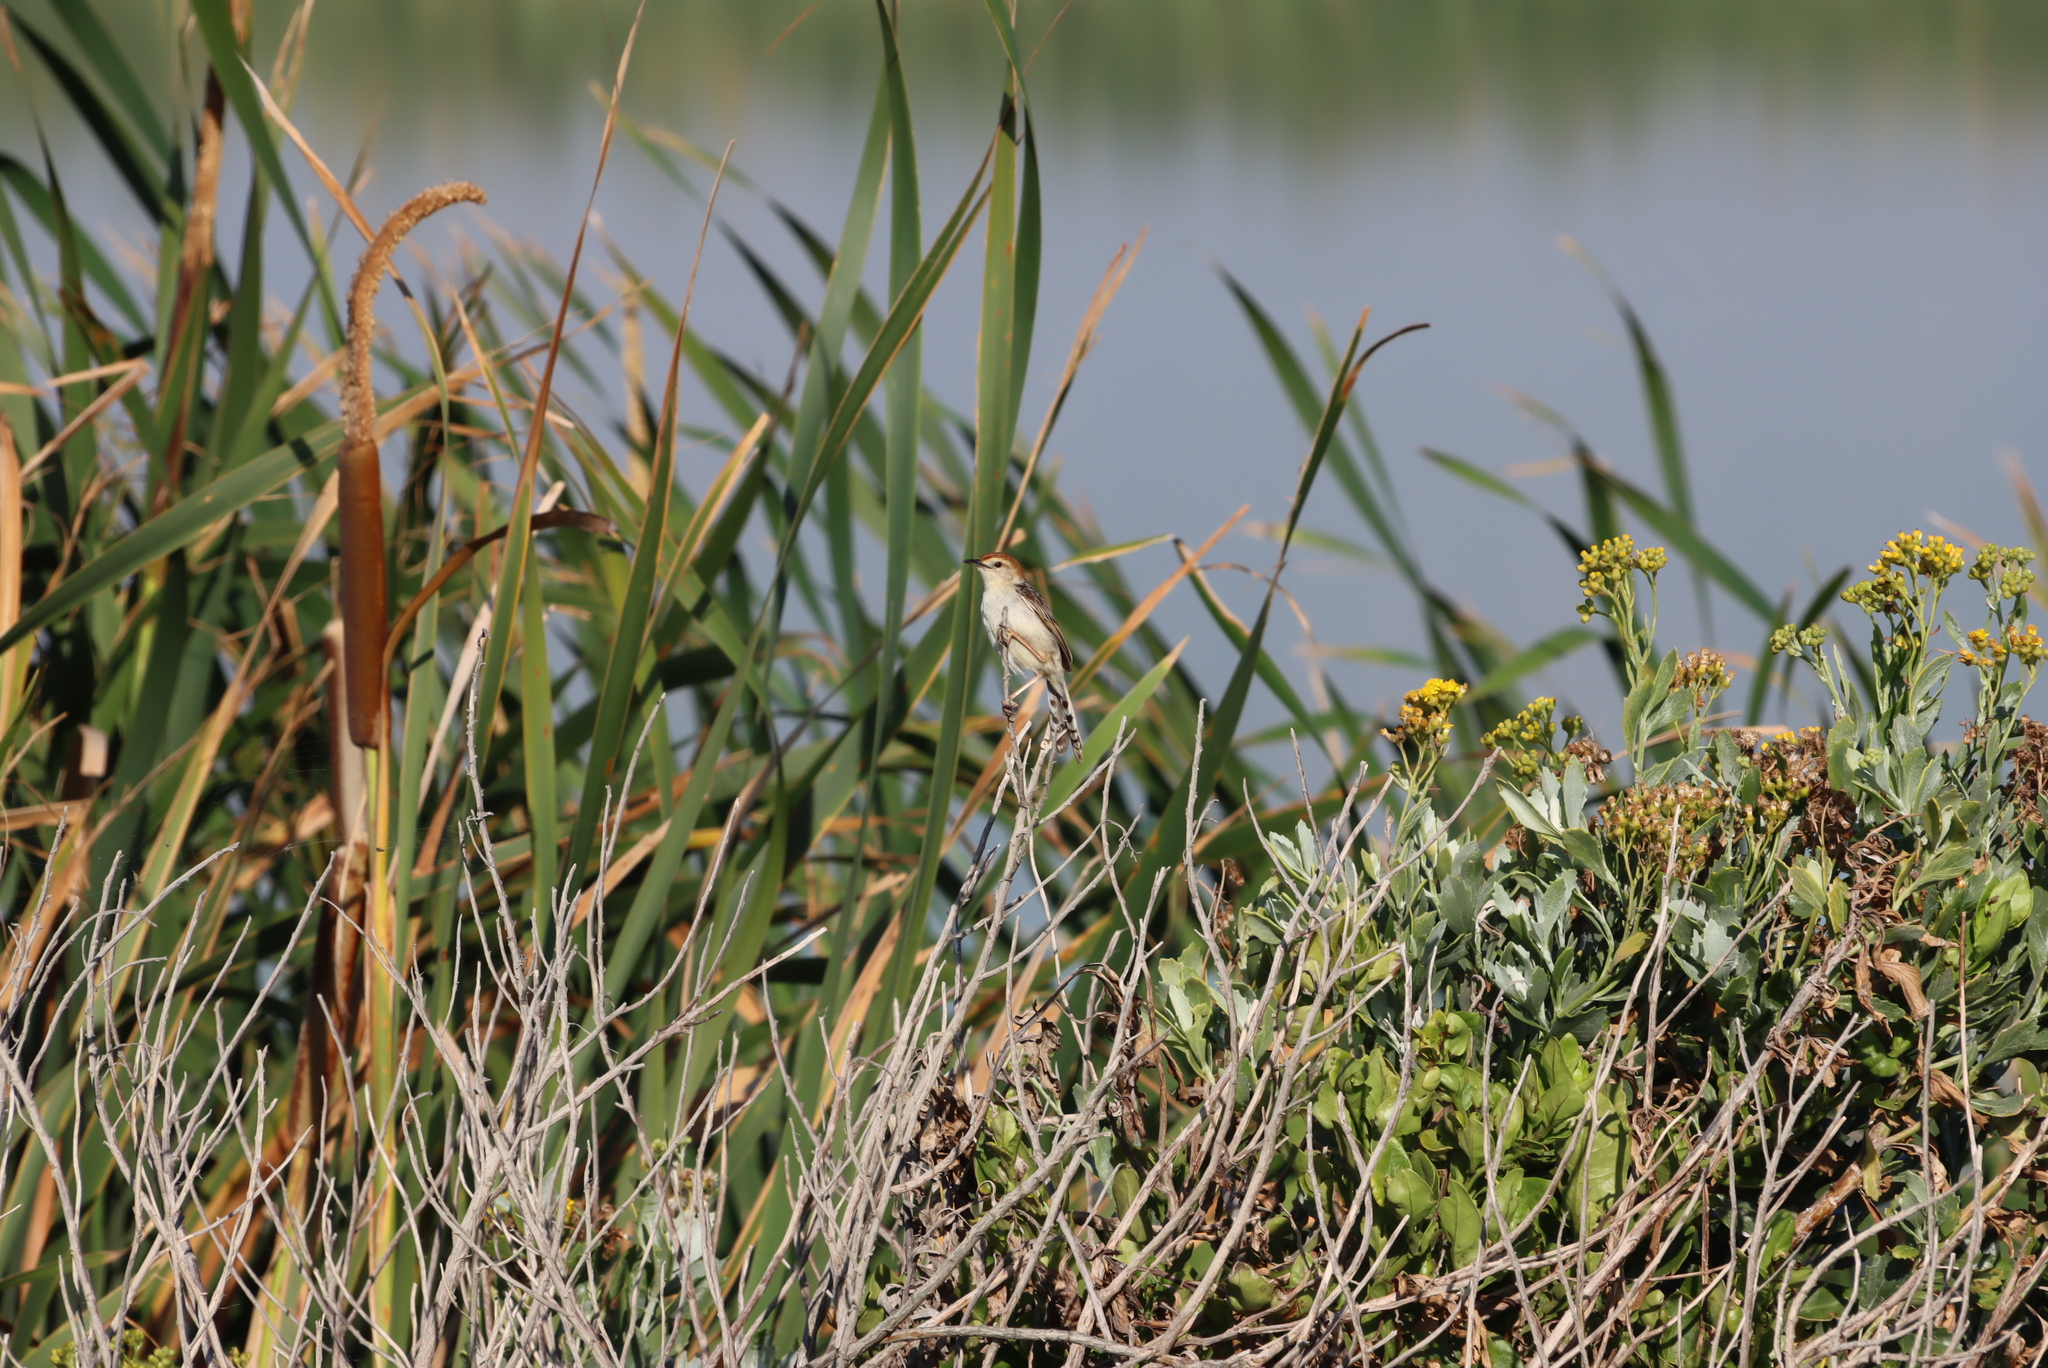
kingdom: Plantae
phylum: Tracheophyta
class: Liliopsida
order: Poales
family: Typhaceae
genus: Typha
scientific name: Typha capensis
